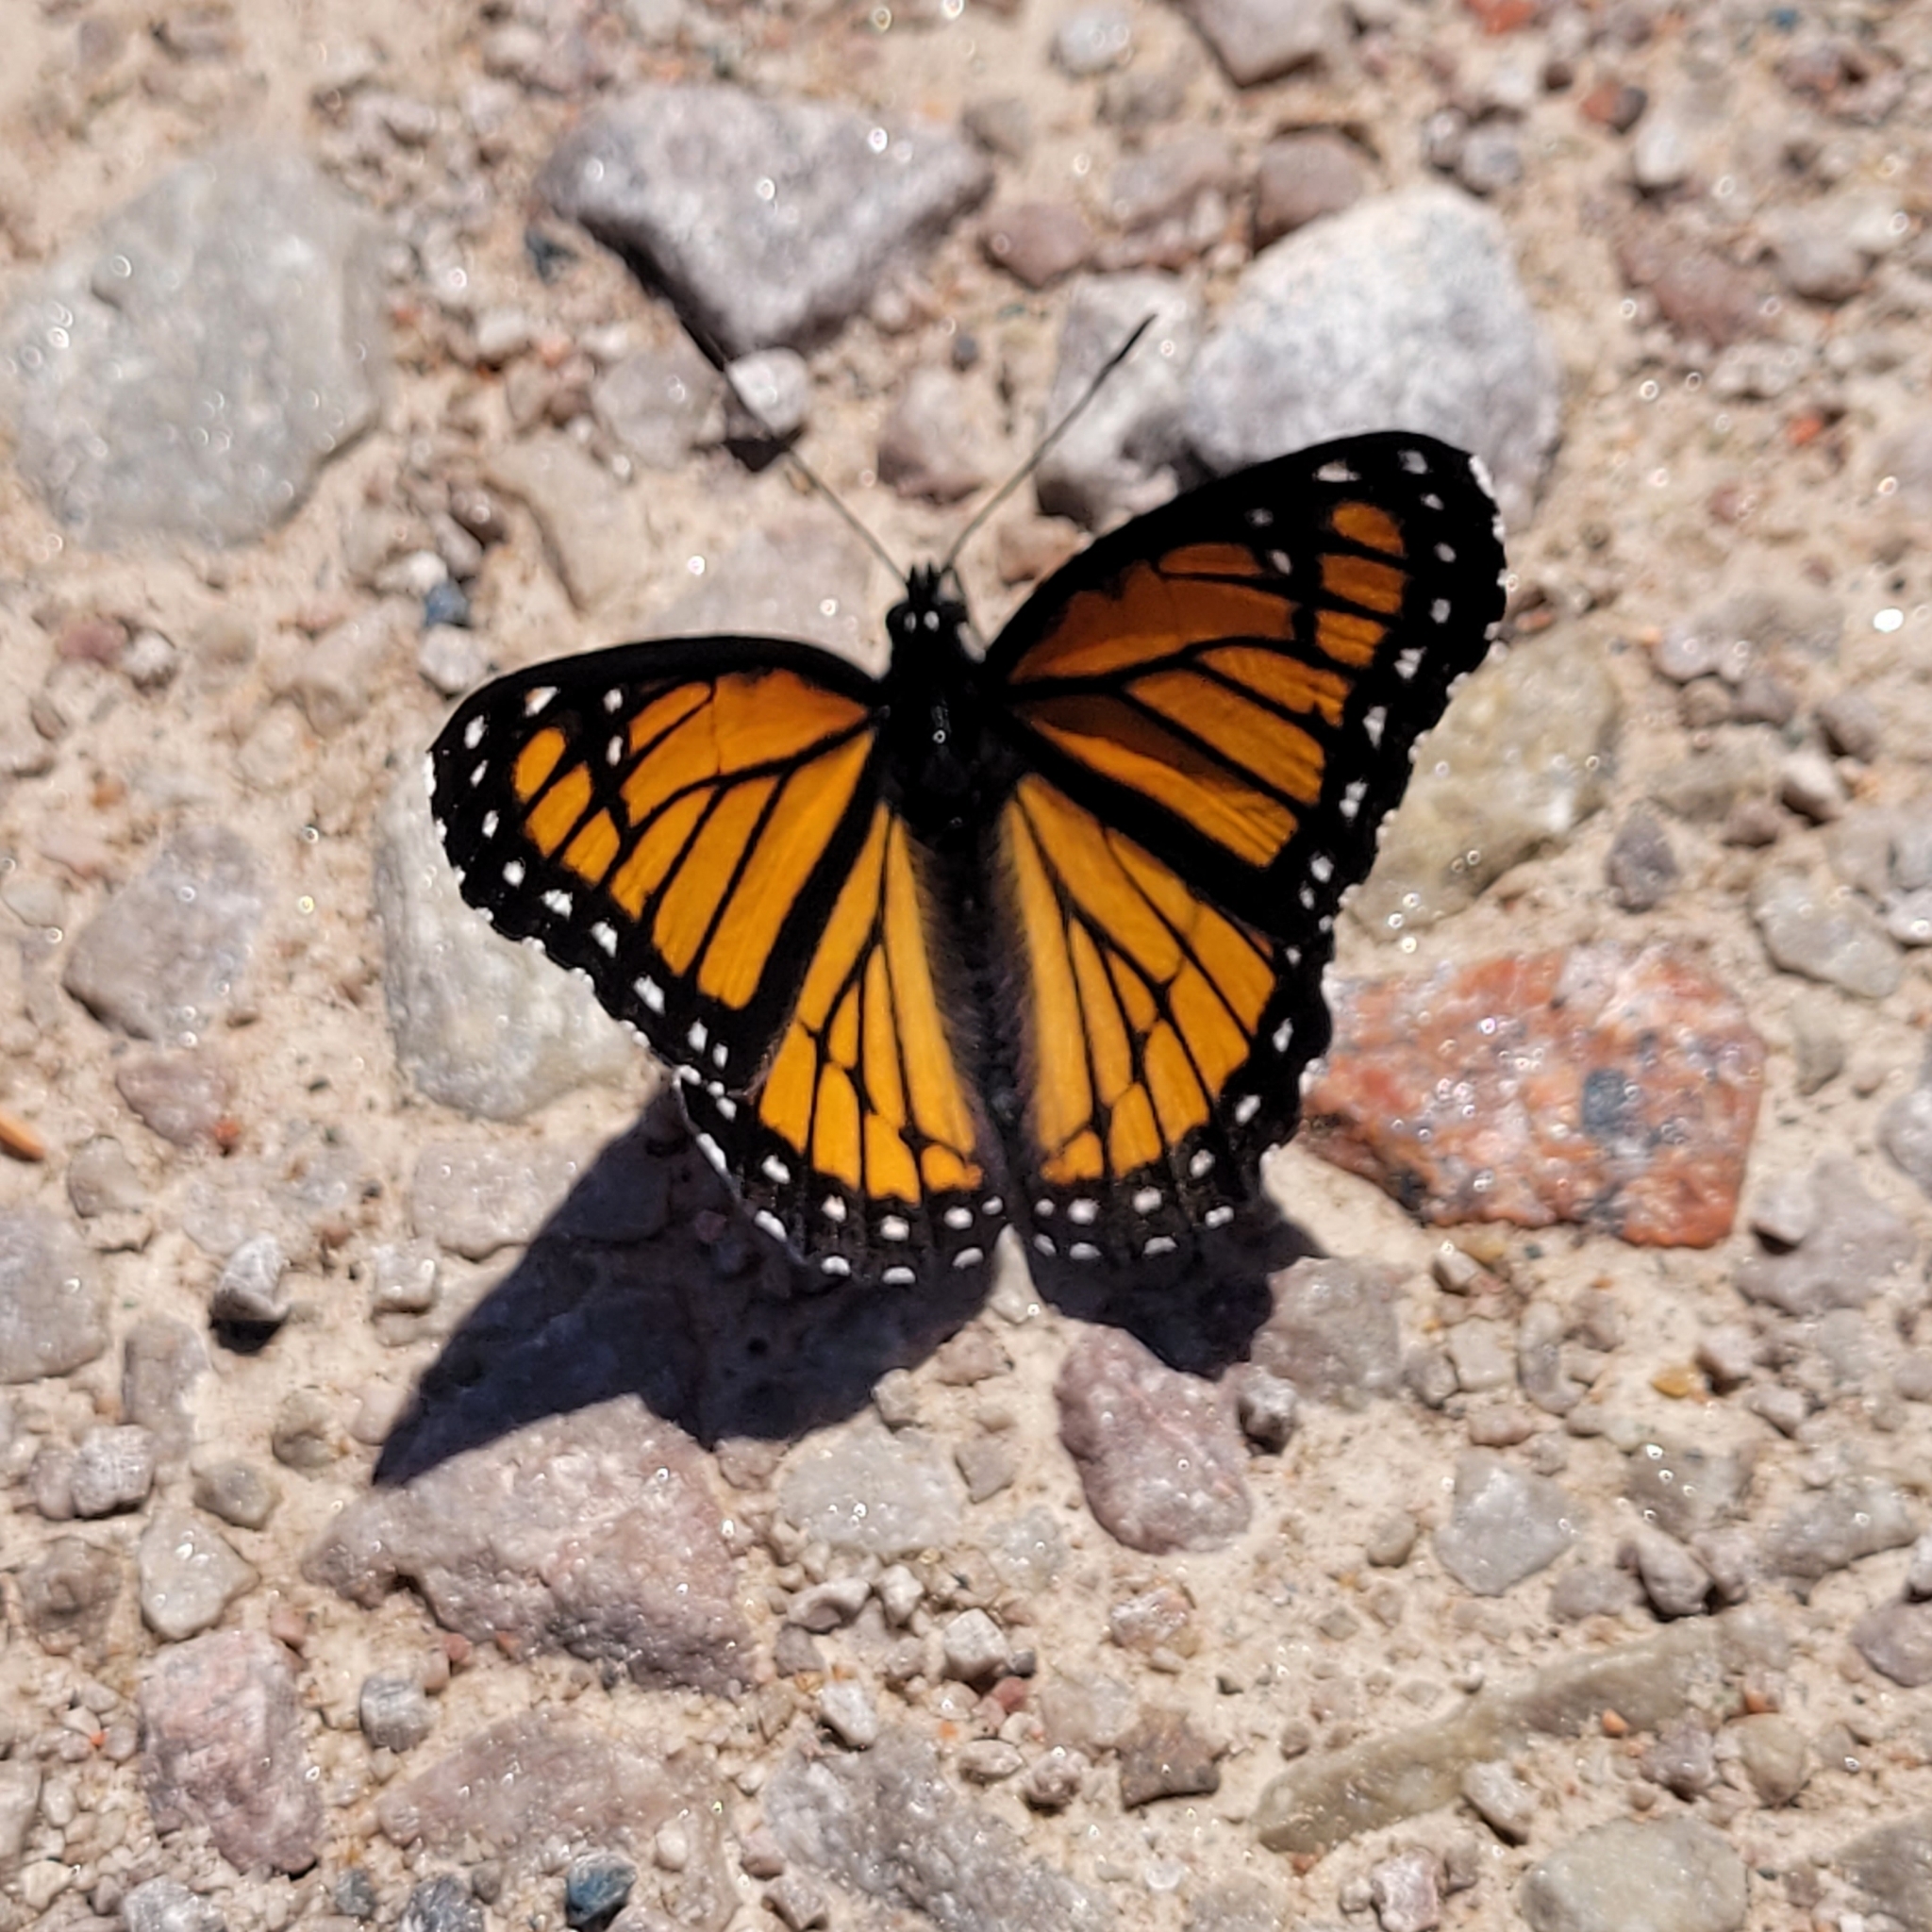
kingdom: Animalia
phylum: Arthropoda
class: Insecta
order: Lepidoptera
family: Nymphalidae
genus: Limenitis
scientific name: Limenitis archippus
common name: Viceroy
